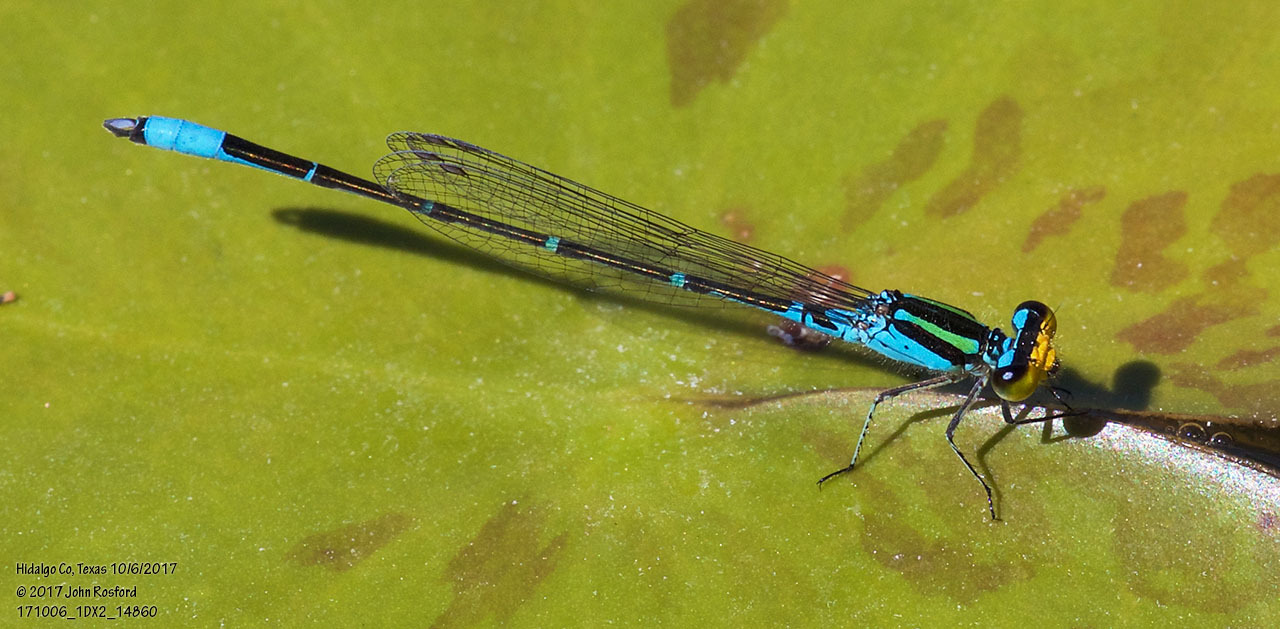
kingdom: Animalia
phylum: Arthropoda
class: Insecta
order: Odonata
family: Coenagrionidae
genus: Neoerythromma
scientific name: Neoerythromma cultellatum
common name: Caribbean yellowface
